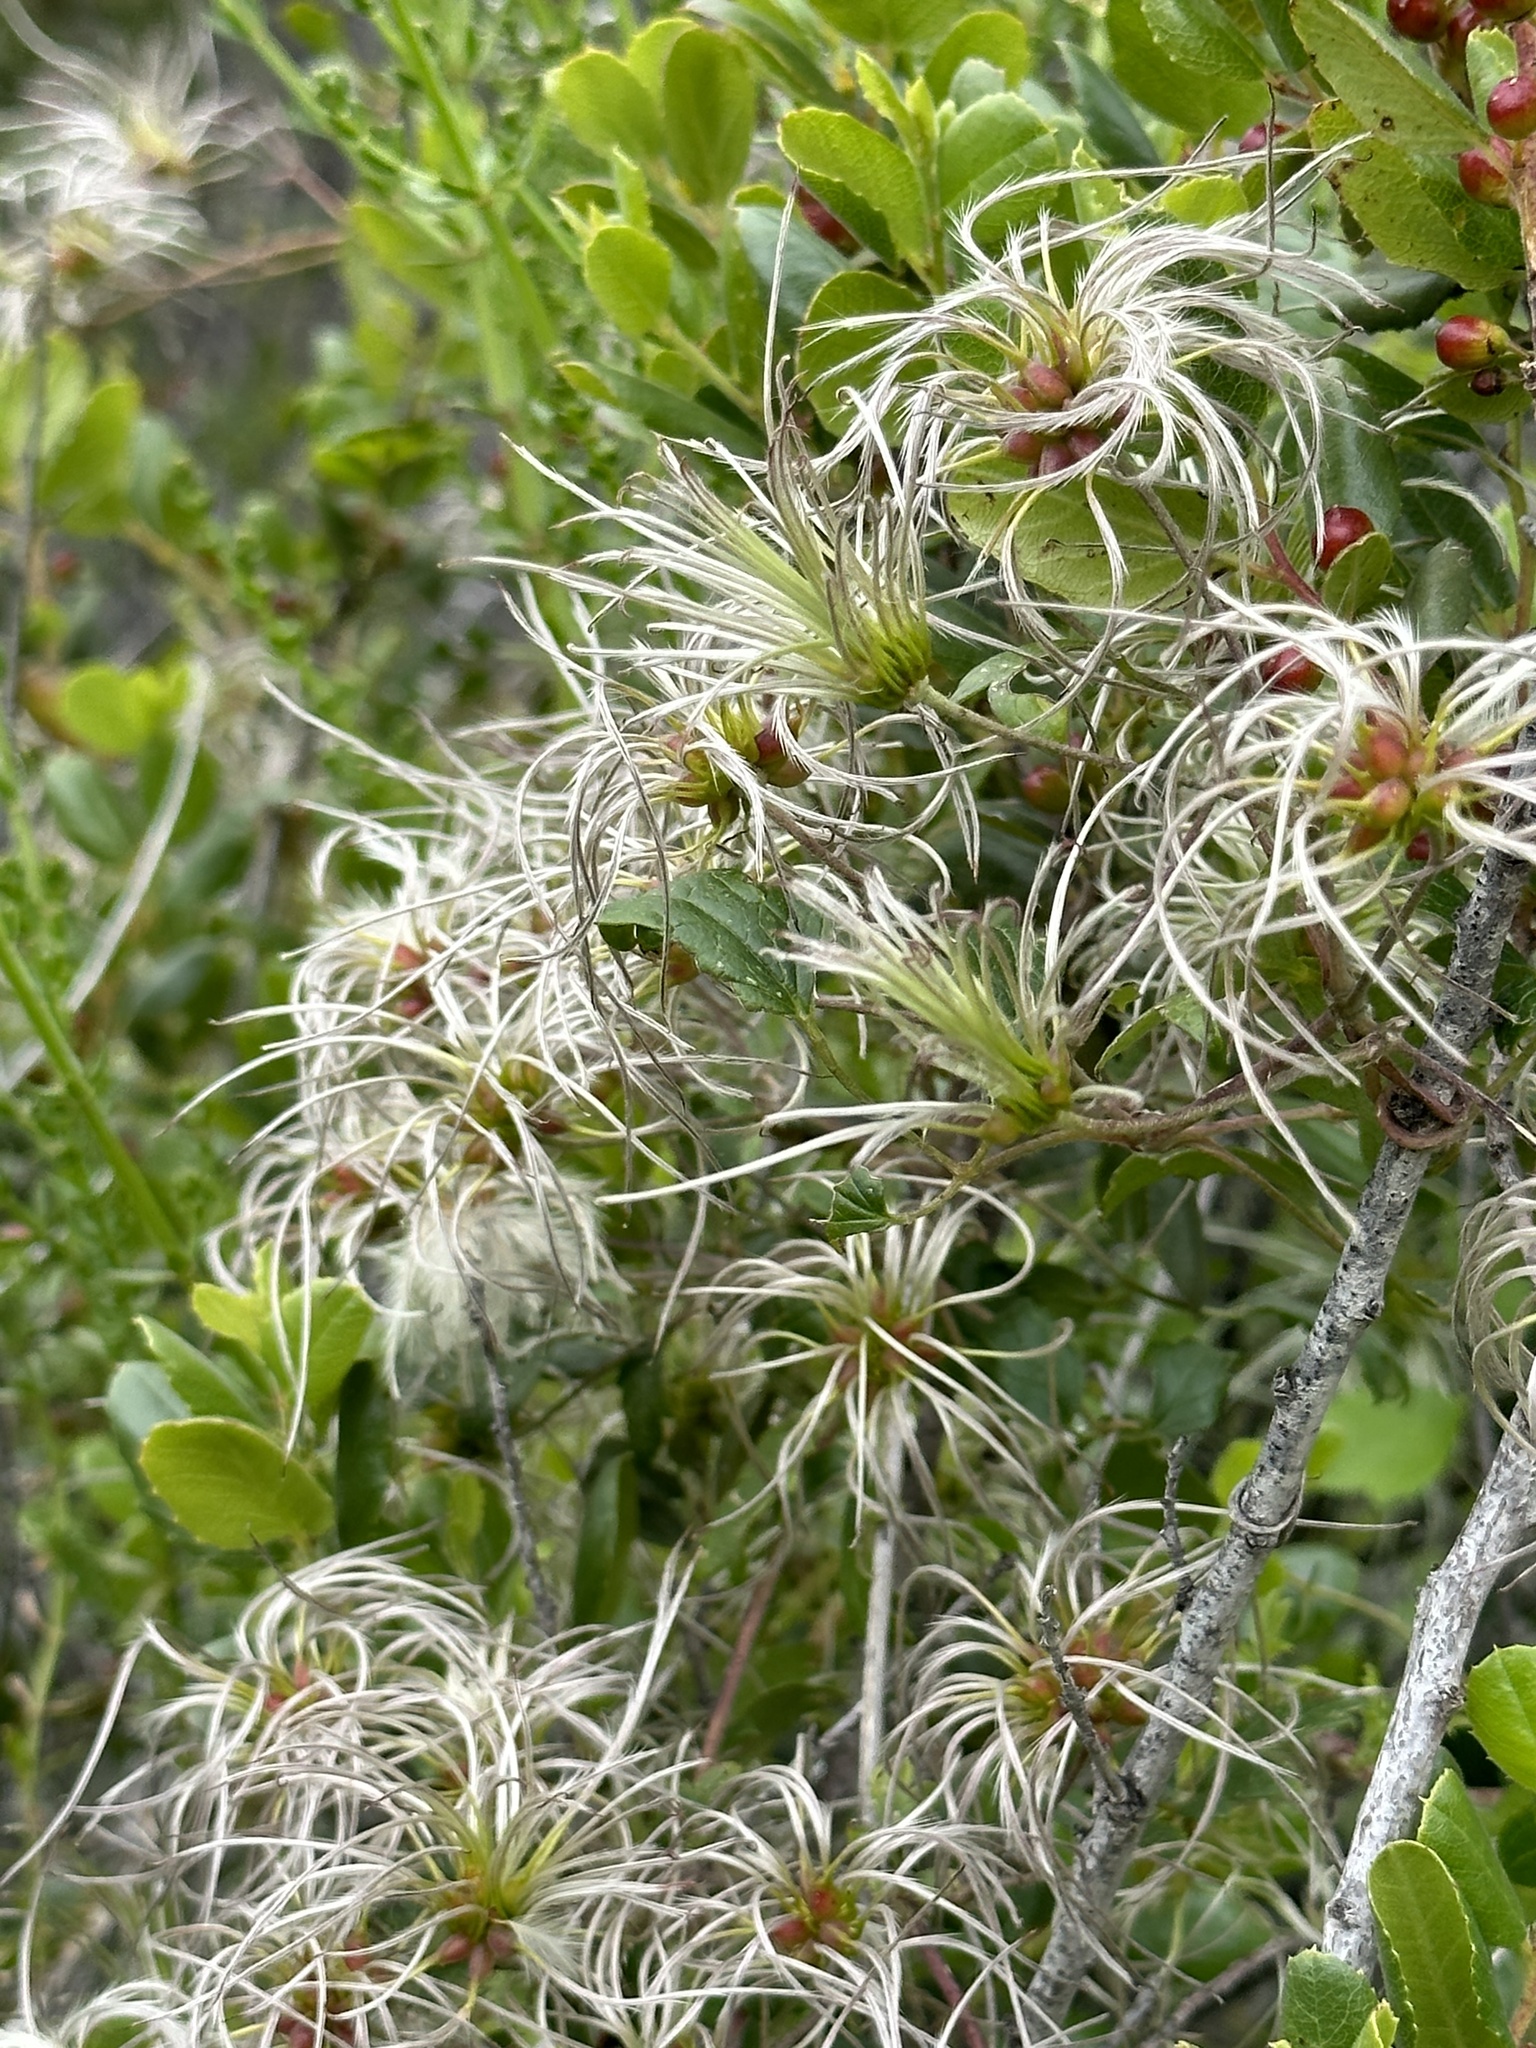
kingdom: Plantae
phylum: Tracheophyta
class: Magnoliopsida
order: Ranunculales
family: Ranunculaceae
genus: Clematis
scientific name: Clematis pauciflora
